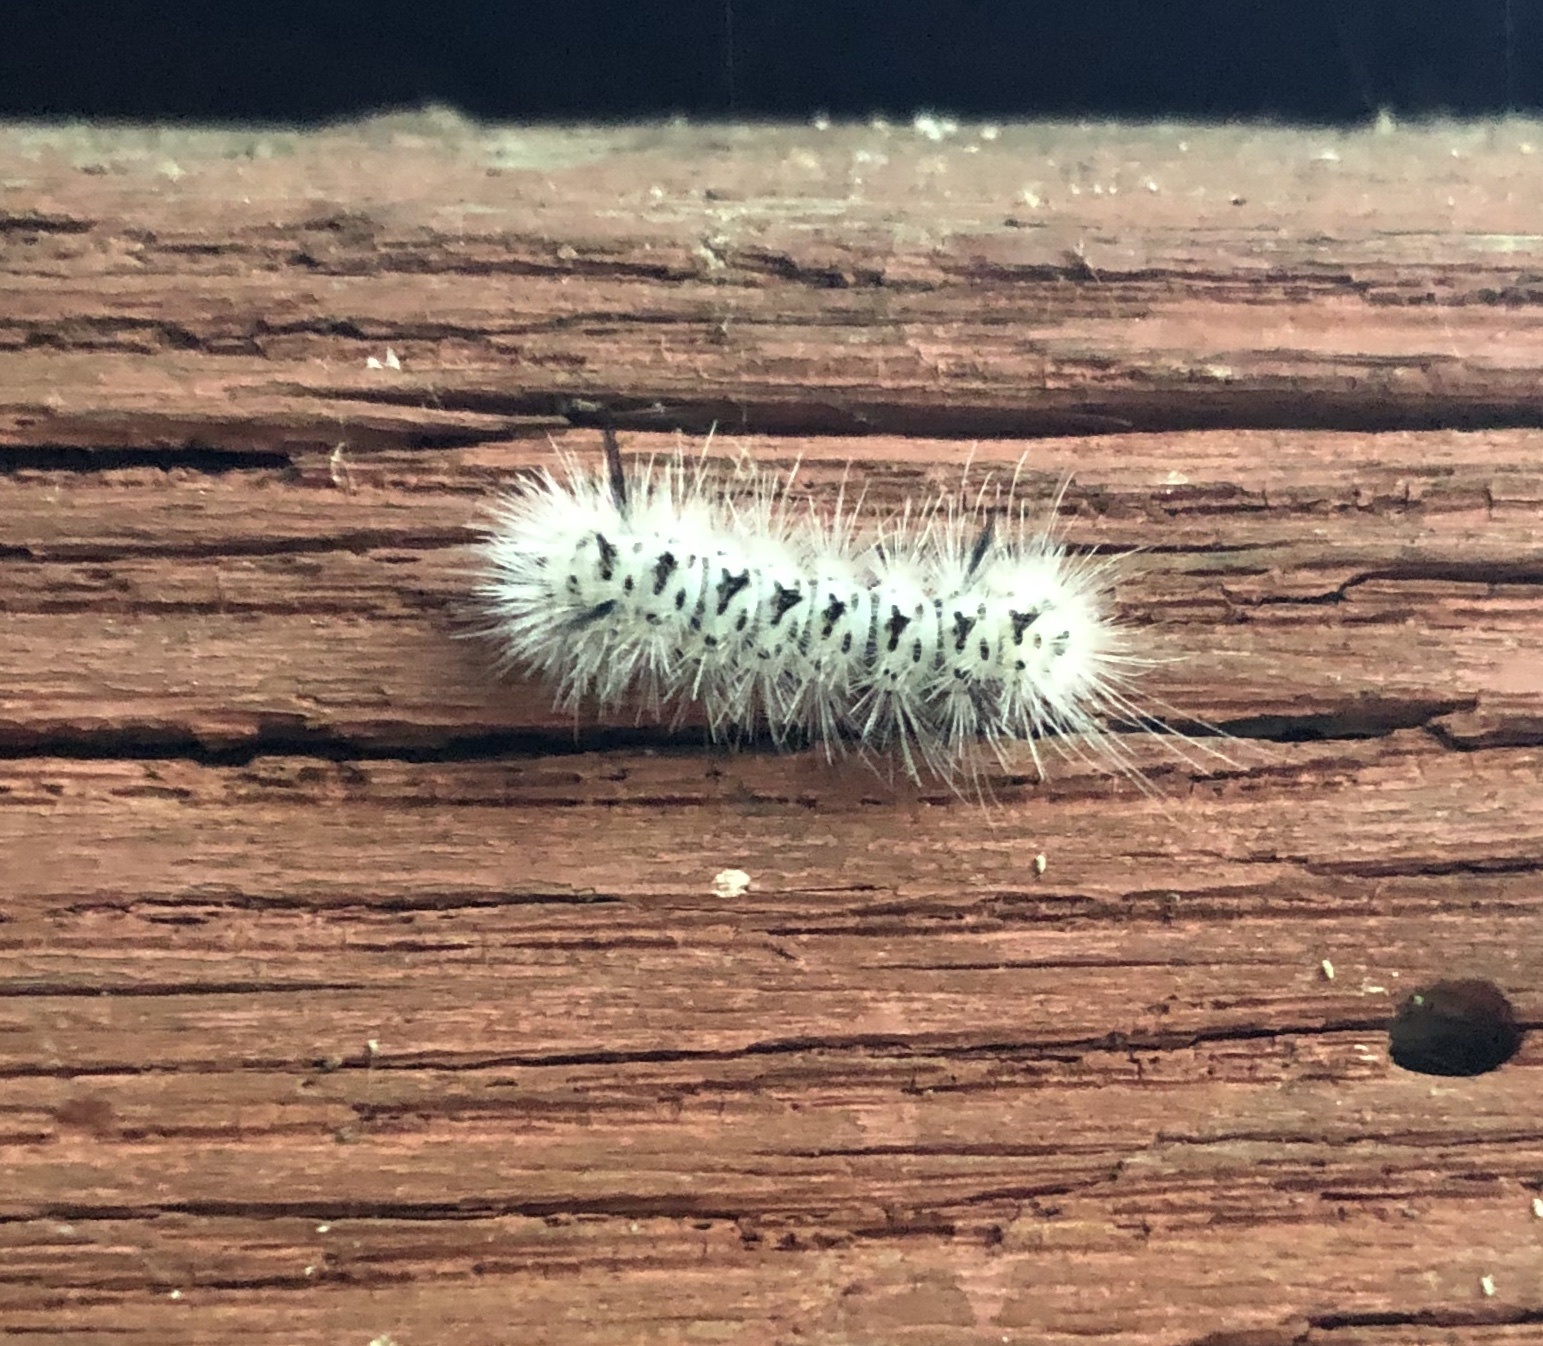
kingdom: Animalia
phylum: Arthropoda
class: Insecta
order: Lepidoptera
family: Erebidae
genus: Lophocampa
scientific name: Lophocampa caryae
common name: Hickory tussock moth
